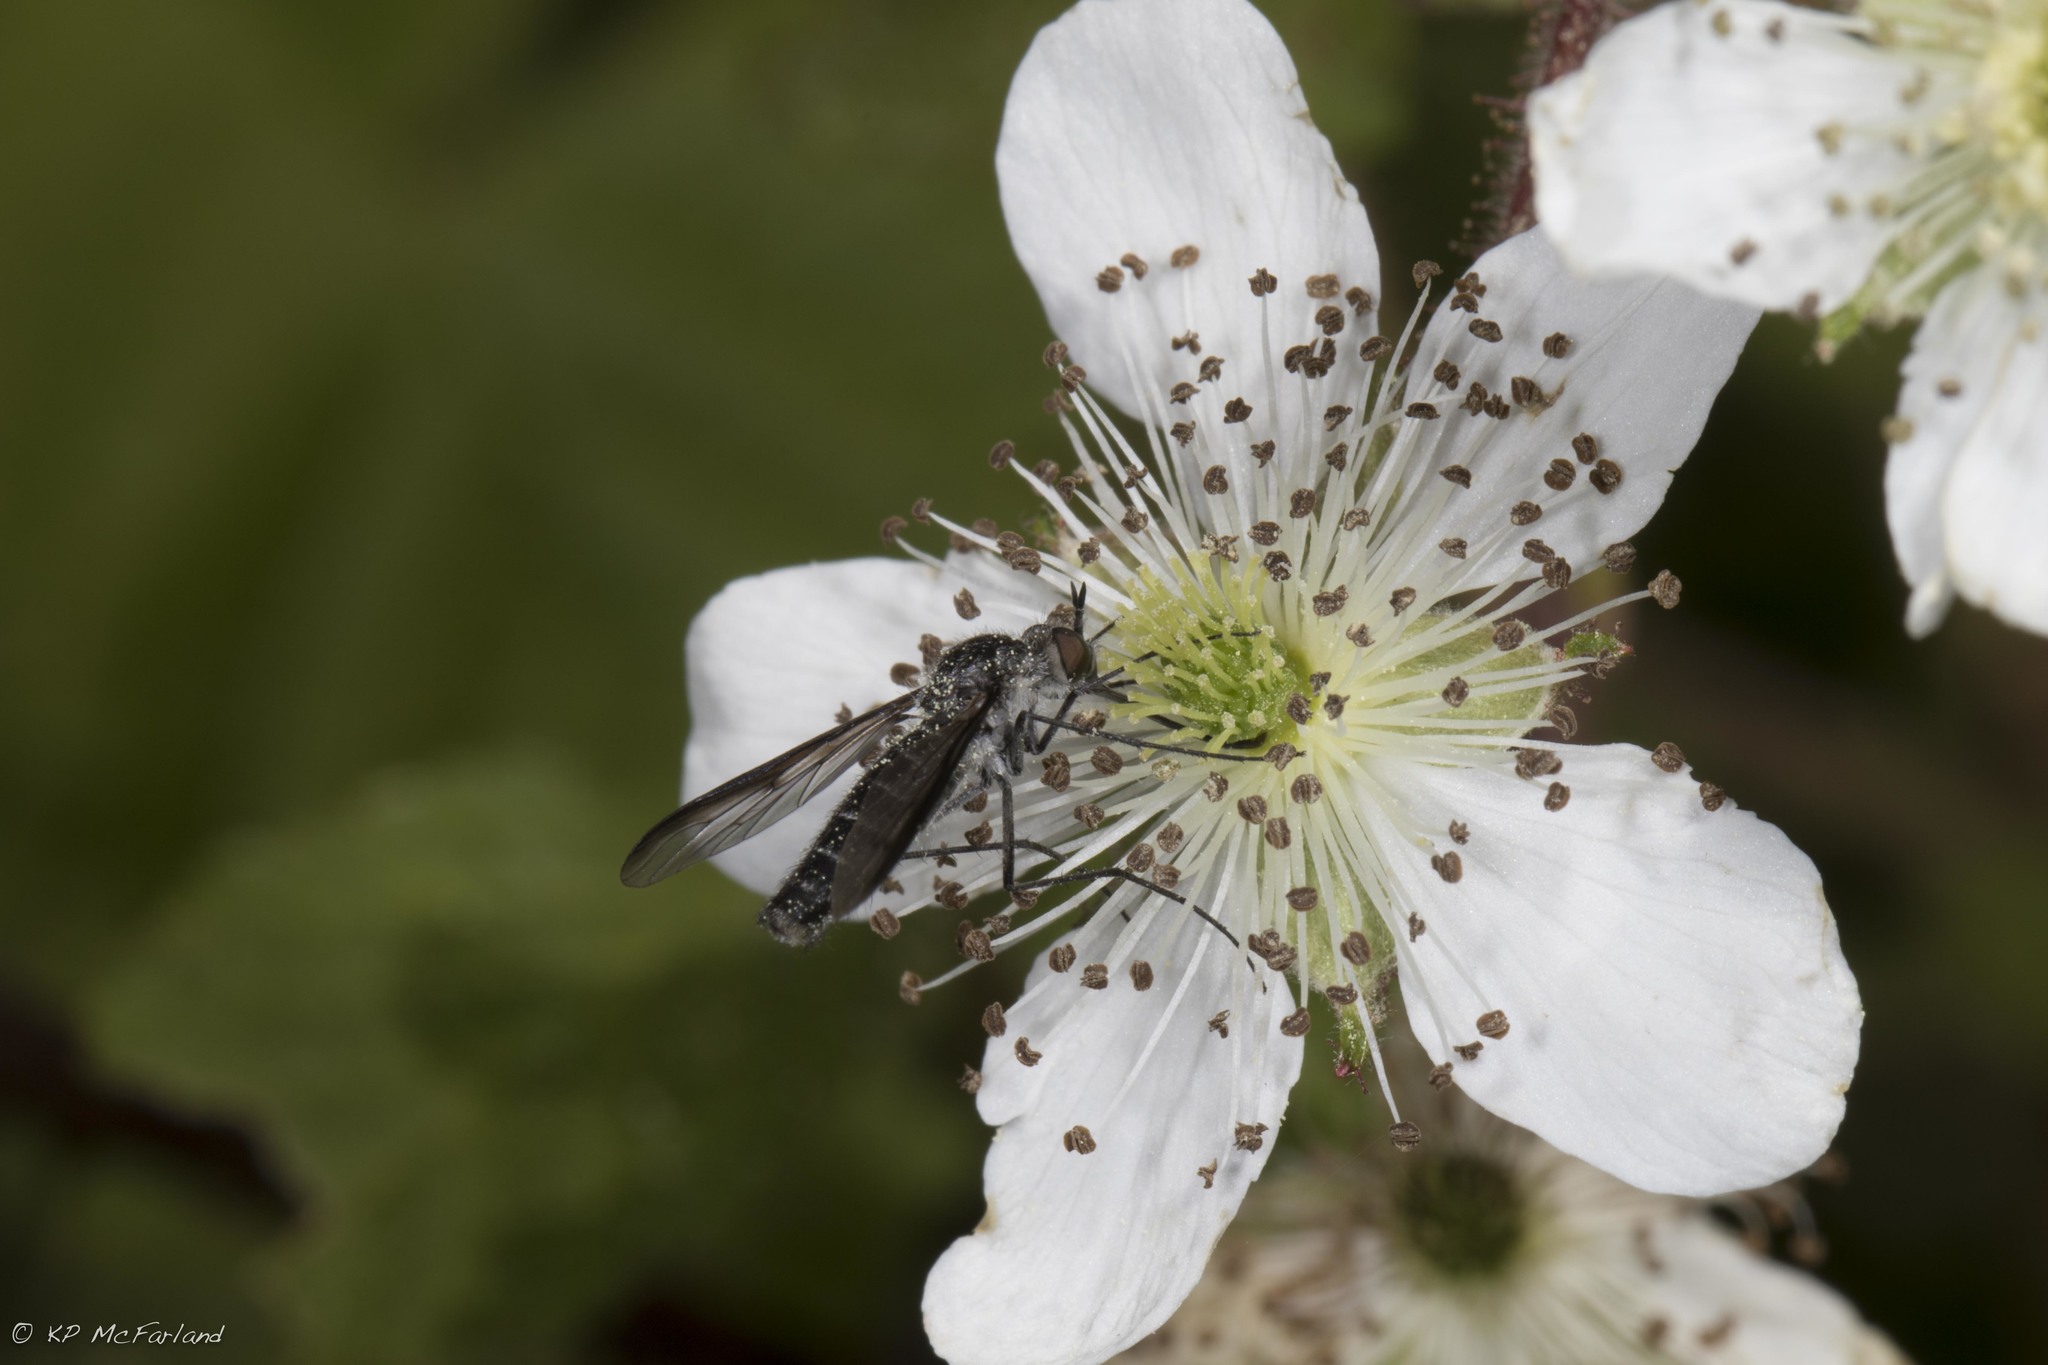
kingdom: Animalia
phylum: Arthropoda
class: Insecta
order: Diptera
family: Bombyliidae
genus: Thevenetimyia
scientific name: Thevenetimyia
